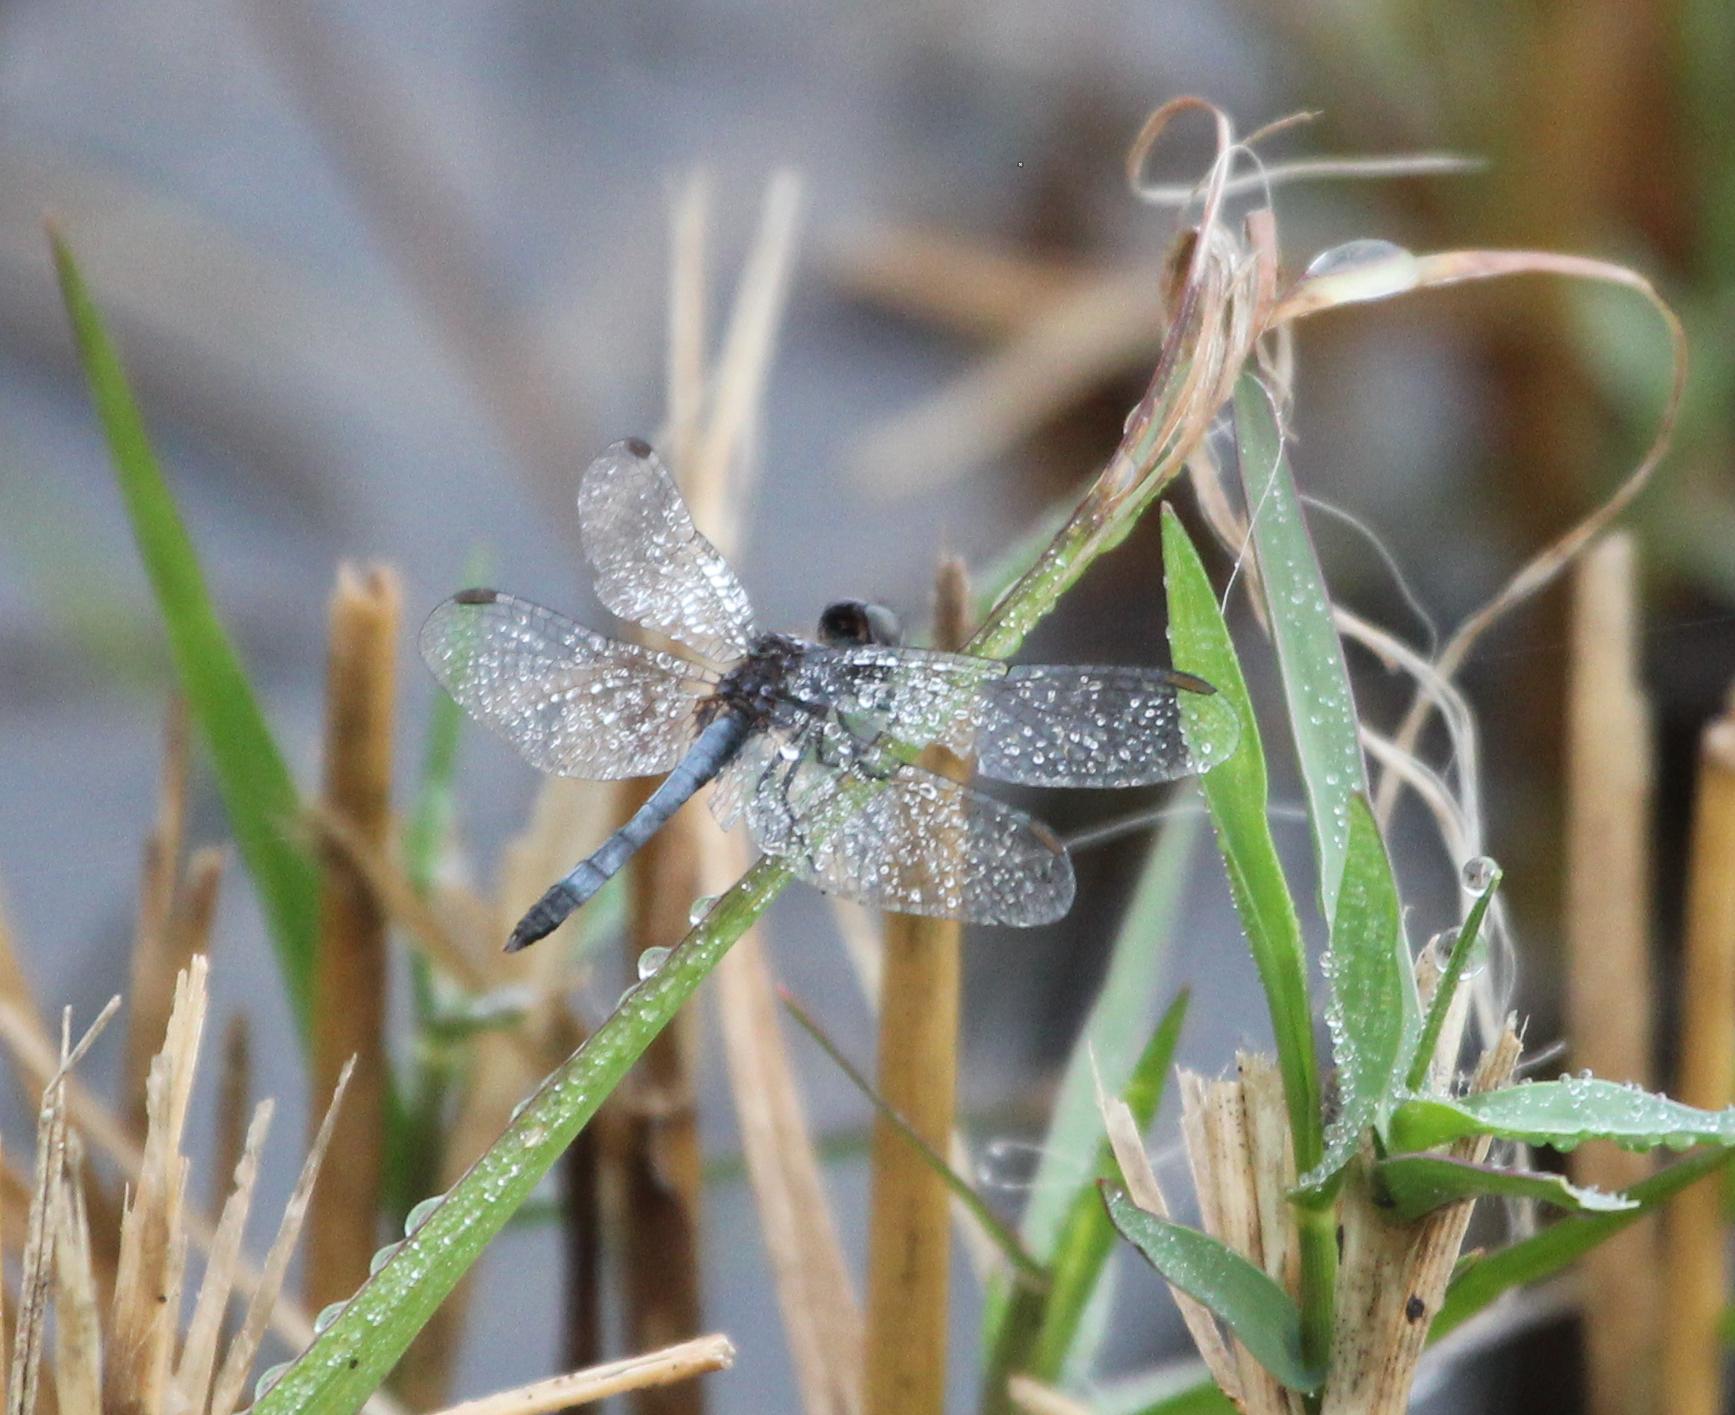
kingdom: Animalia
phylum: Arthropoda
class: Insecta
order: Odonata
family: Libellulidae
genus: Erythrodiplax
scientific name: Erythrodiplax minuscula
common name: Little blue dragonlet
